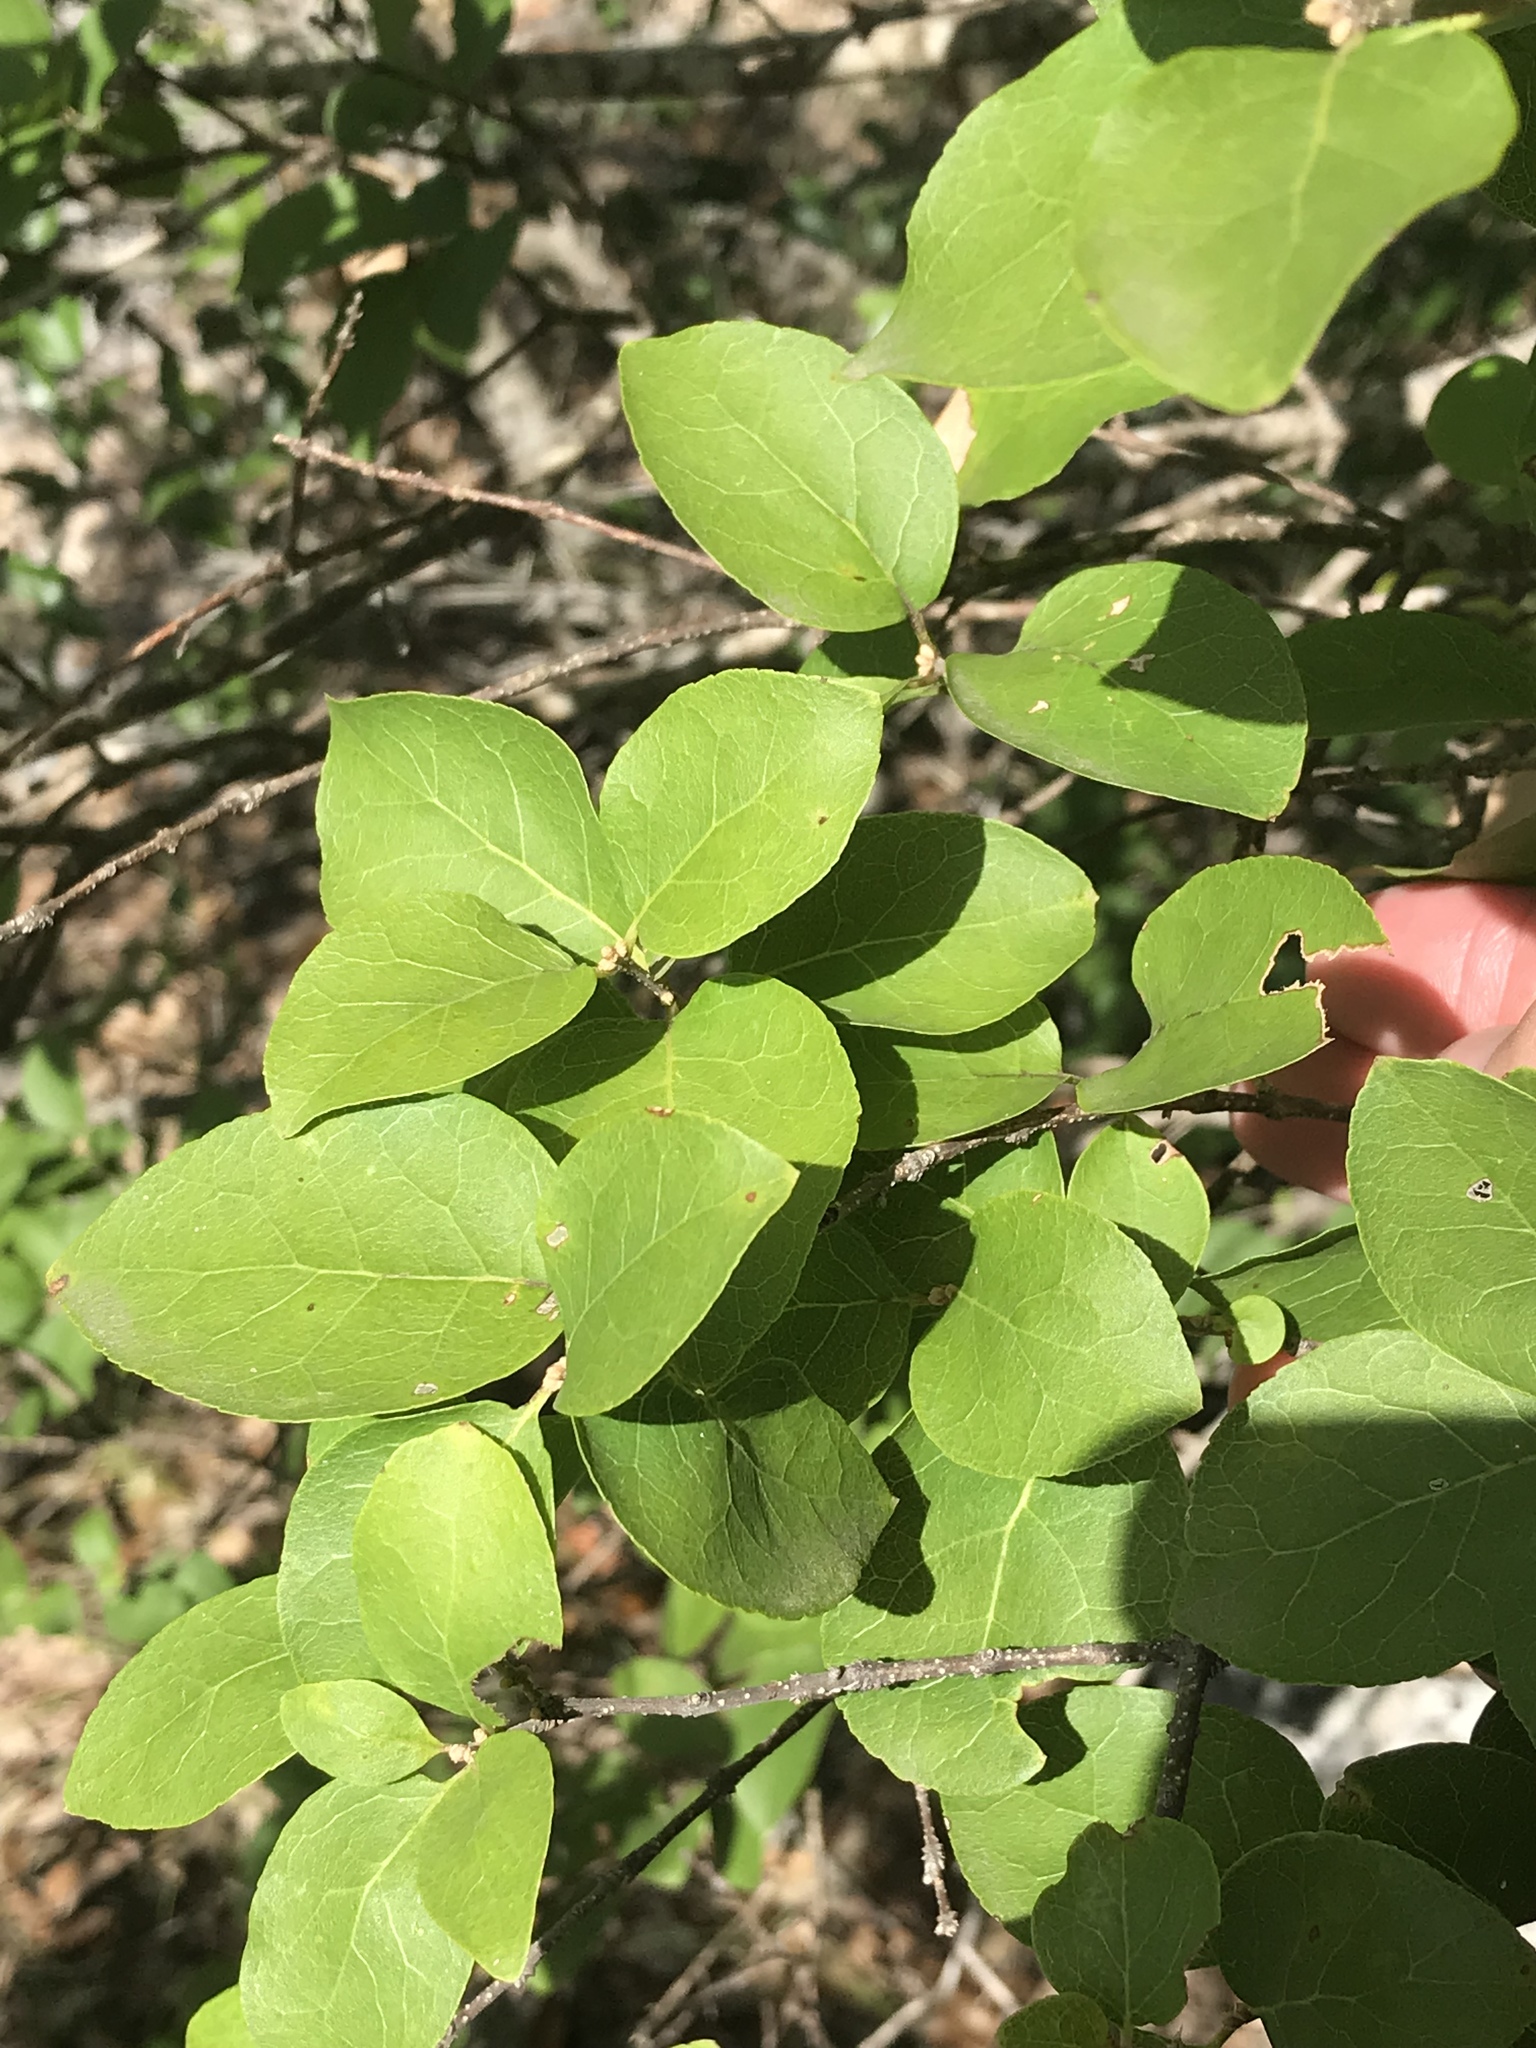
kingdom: Plantae
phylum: Tracheophyta
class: Magnoliopsida
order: Lamiales
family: Oleaceae
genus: Forestiera
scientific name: Forestiera reticulata
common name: Netleaf swamp-privet
